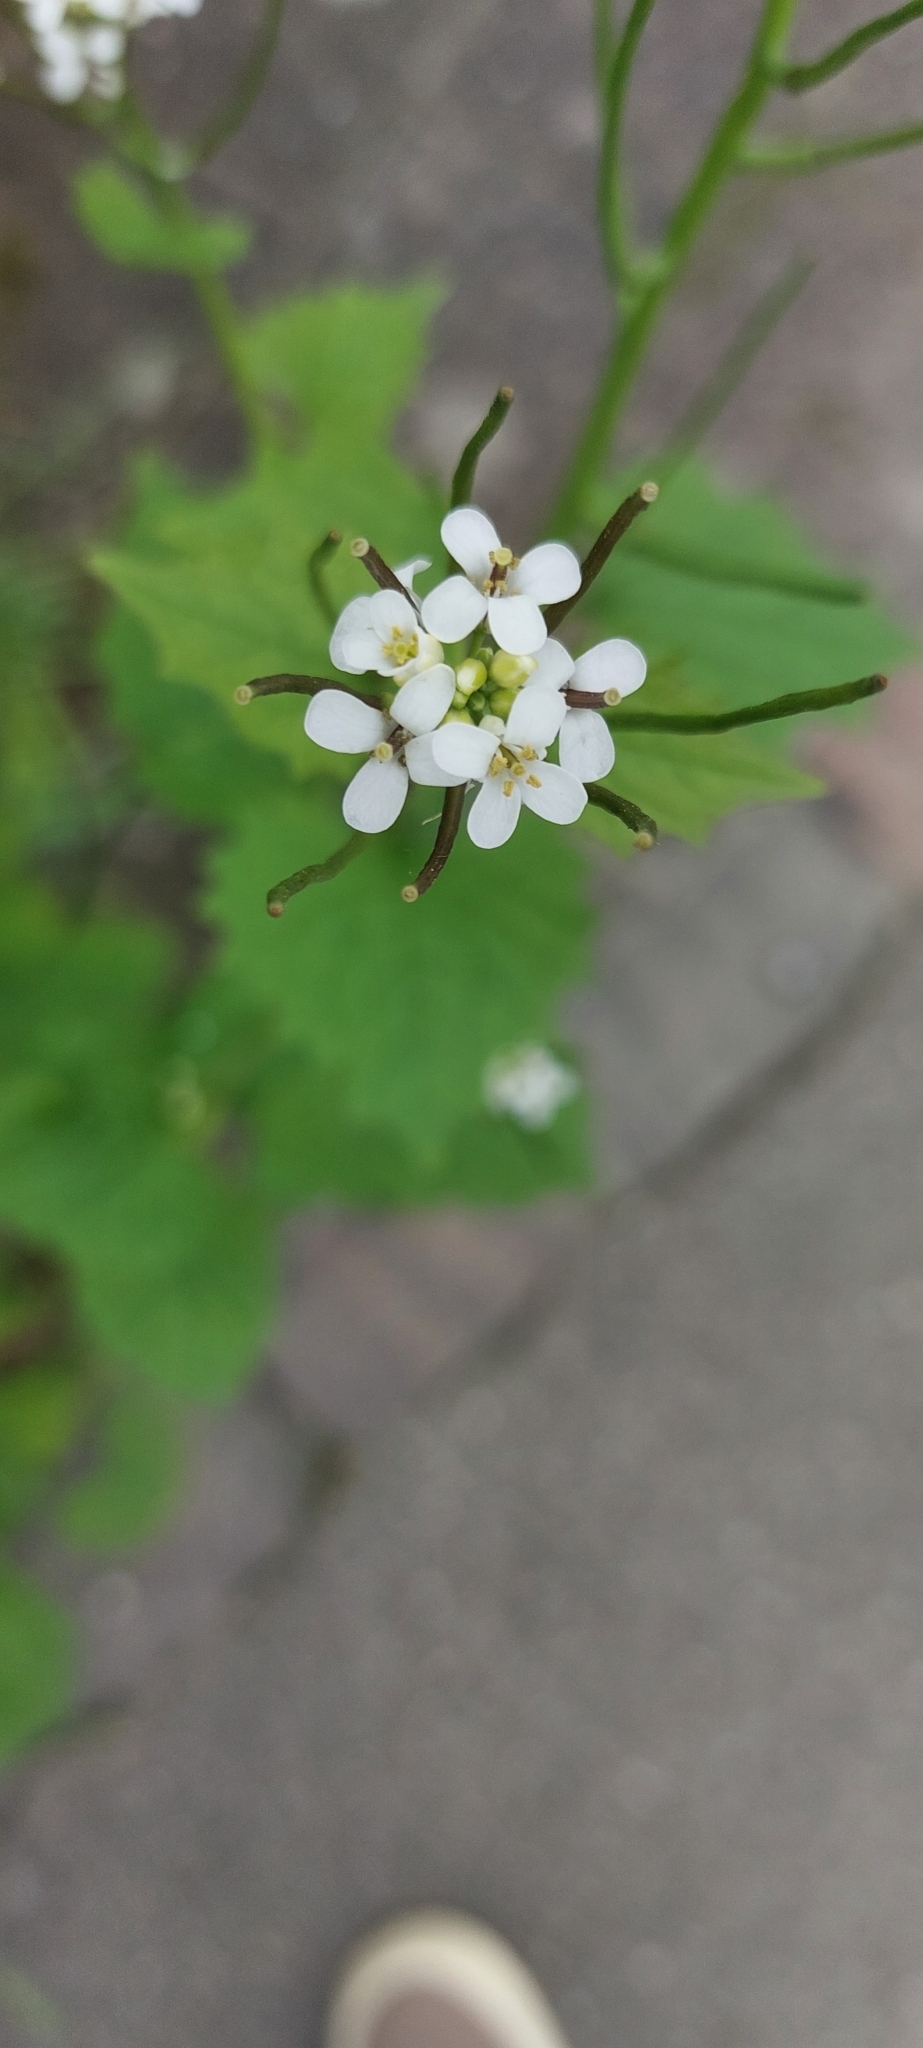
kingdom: Plantae
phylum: Tracheophyta
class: Magnoliopsida
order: Brassicales
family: Brassicaceae
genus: Alliaria
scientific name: Alliaria petiolata
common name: Garlic mustard
